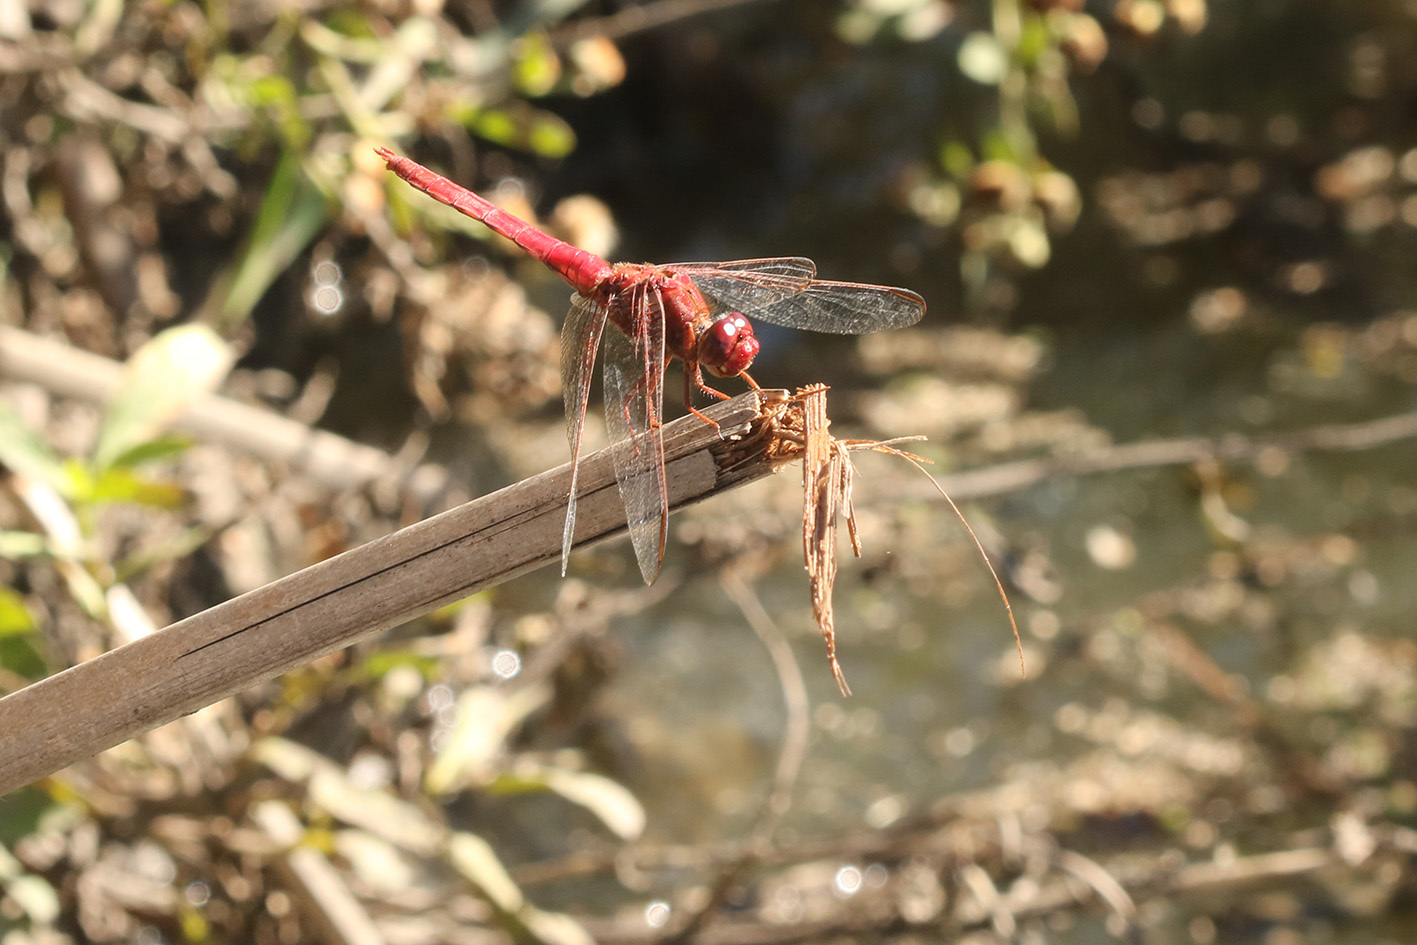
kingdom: Animalia
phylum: Arthropoda
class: Insecta
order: Odonata
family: Libellulidae
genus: Orthemis
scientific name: Orthemis nodiplaga
